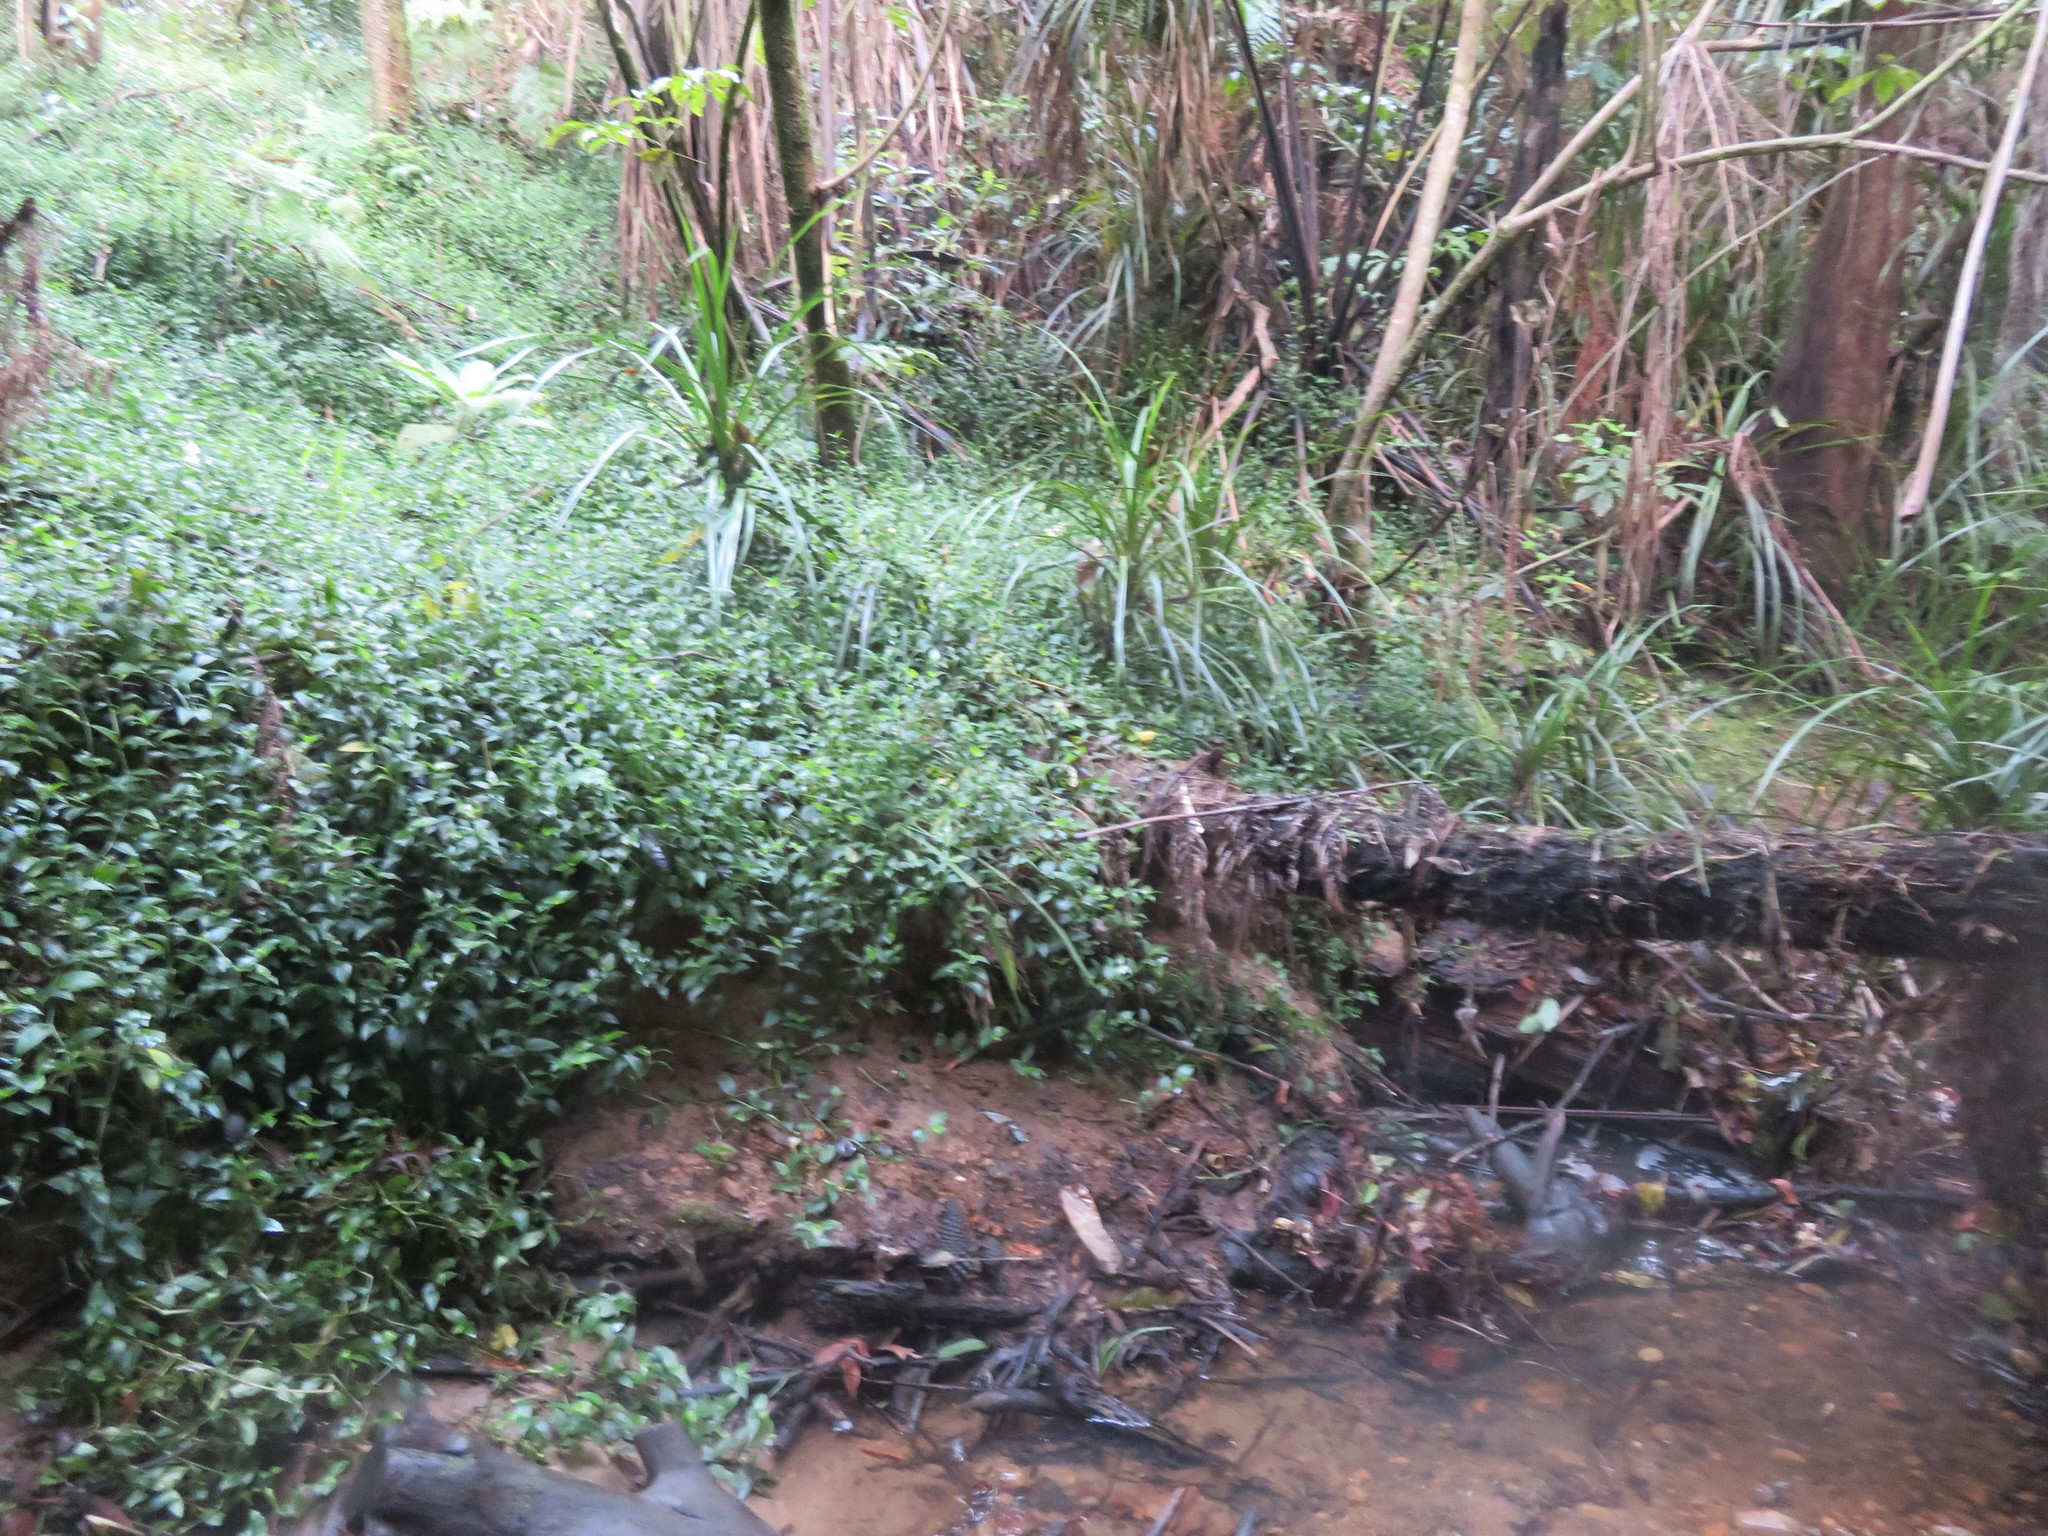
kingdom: Plantae
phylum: Tracheophyta
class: Liliopsida
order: Commelinales
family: Commelinaceae
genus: Tradescantia
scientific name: Tradescantia fluminensis
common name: Wandering-jew
